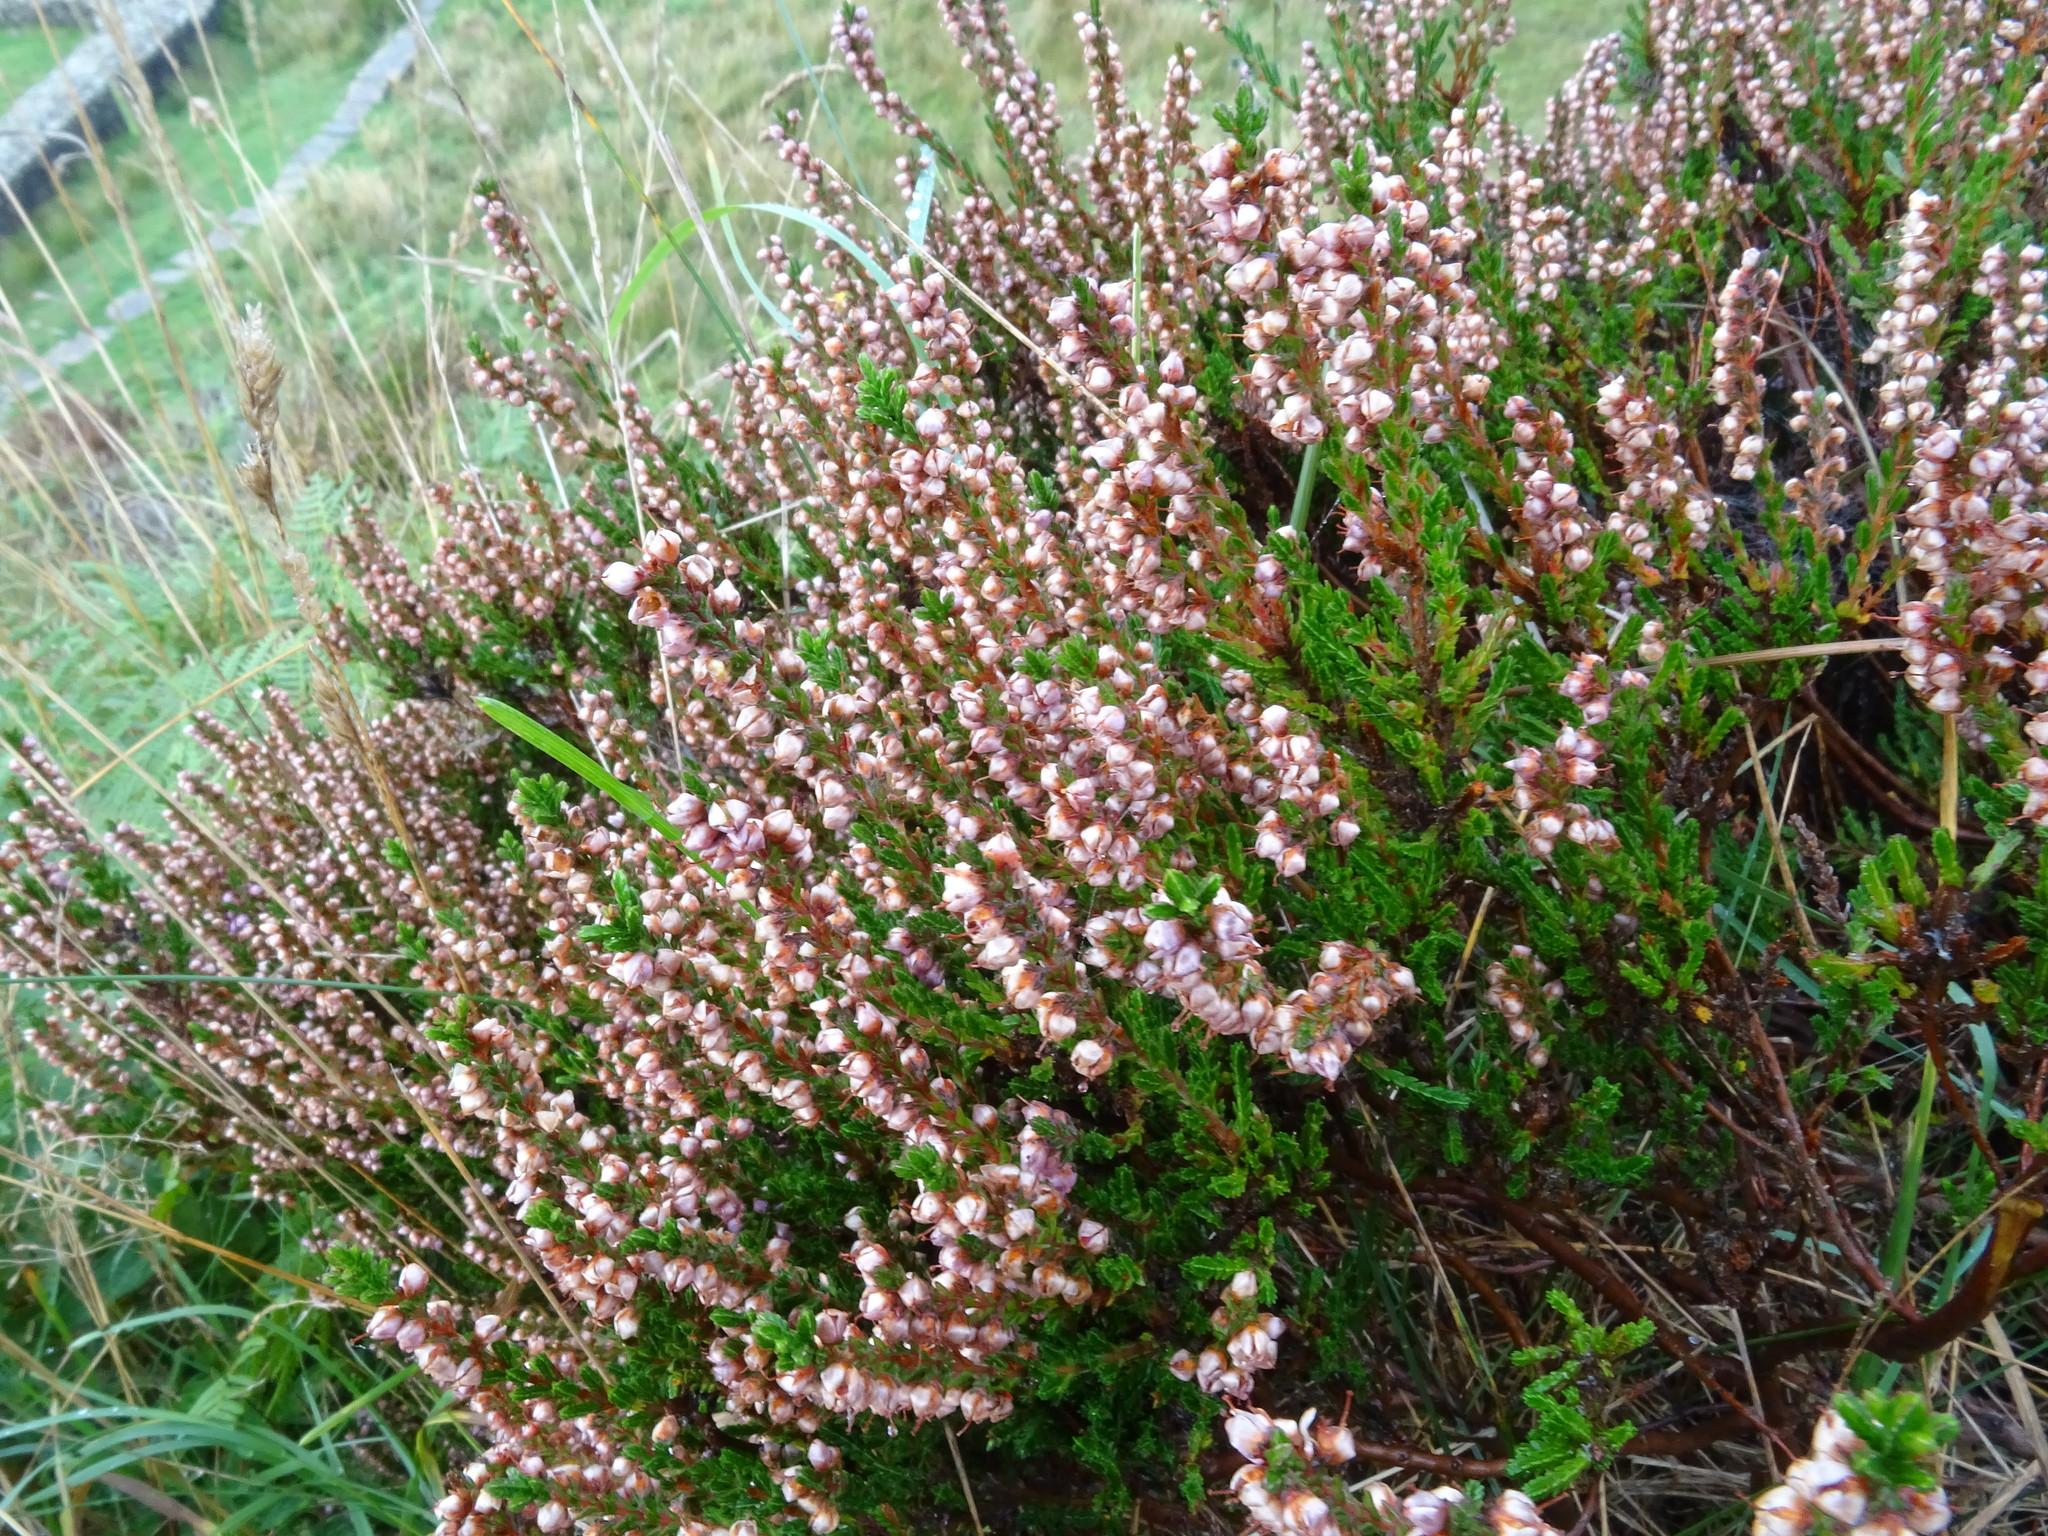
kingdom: Plantae
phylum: Tracheophyta
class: Magnoliopsida
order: Ericales
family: Ericaceae
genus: Calluna
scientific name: Calluna vulgaris
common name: Heather
